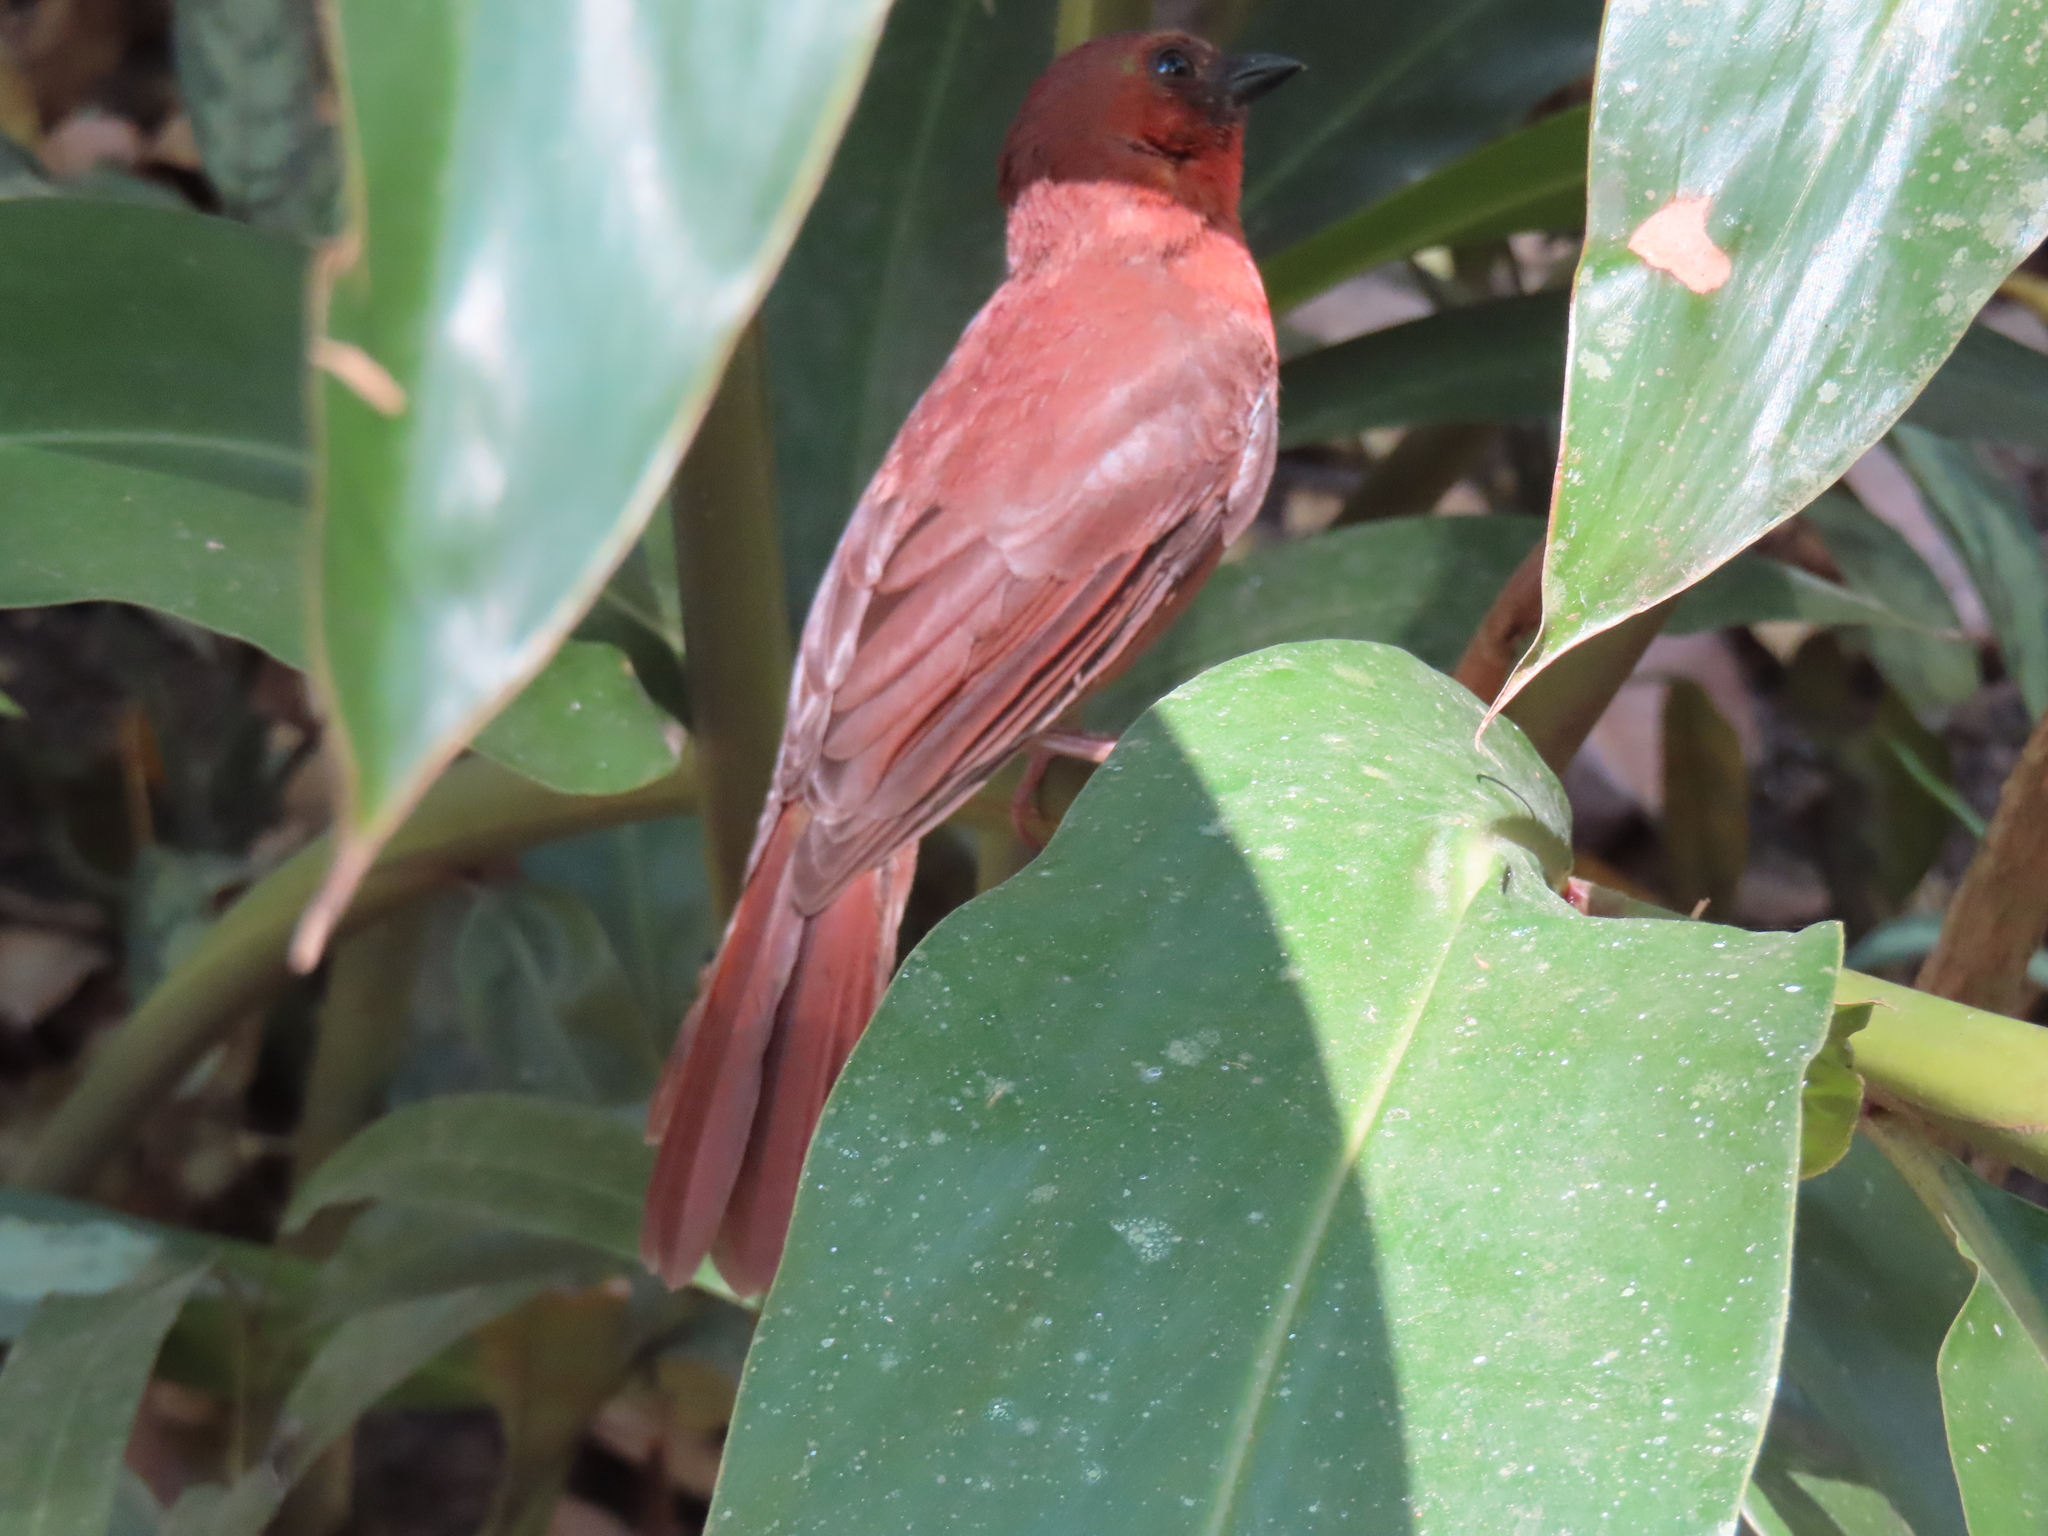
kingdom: Animalia
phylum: Chordata
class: Aves
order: Passeriformes
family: Cardinalidae
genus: Habia
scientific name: Habia fuscicauda
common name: Red-throated ant-tanager
